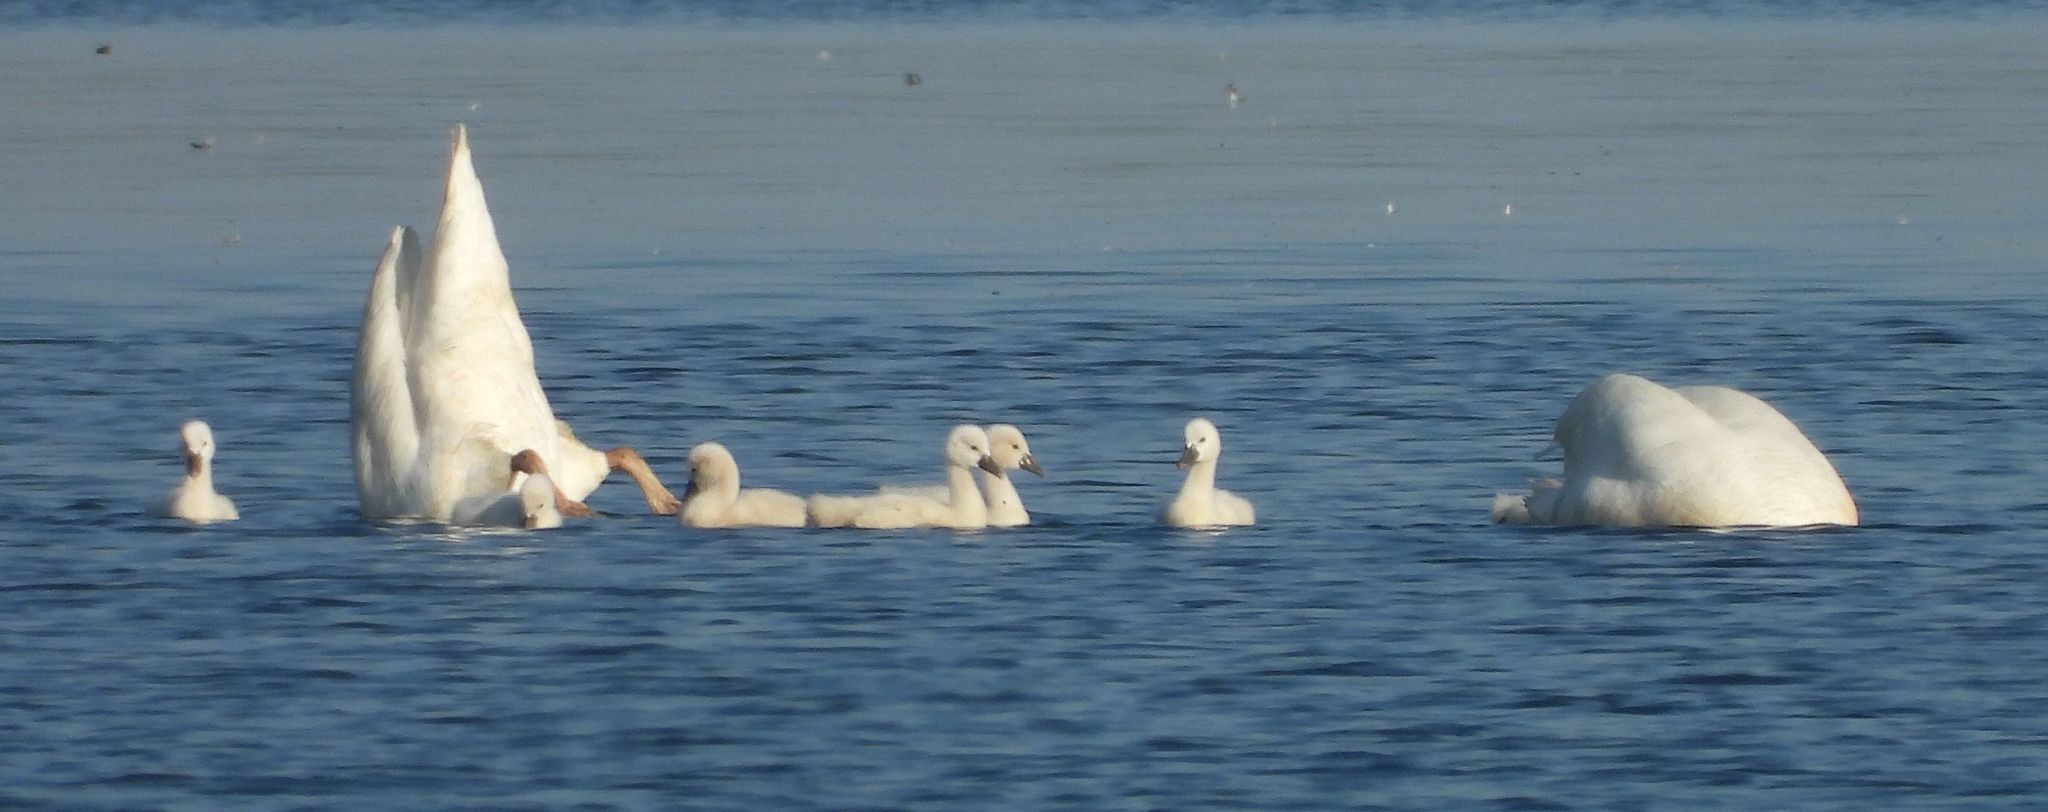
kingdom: Animalia
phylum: Chordata
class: Aves
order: Anseriformes
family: Anatidae
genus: Cygnus
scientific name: Cygnus olor
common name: Mute swan
